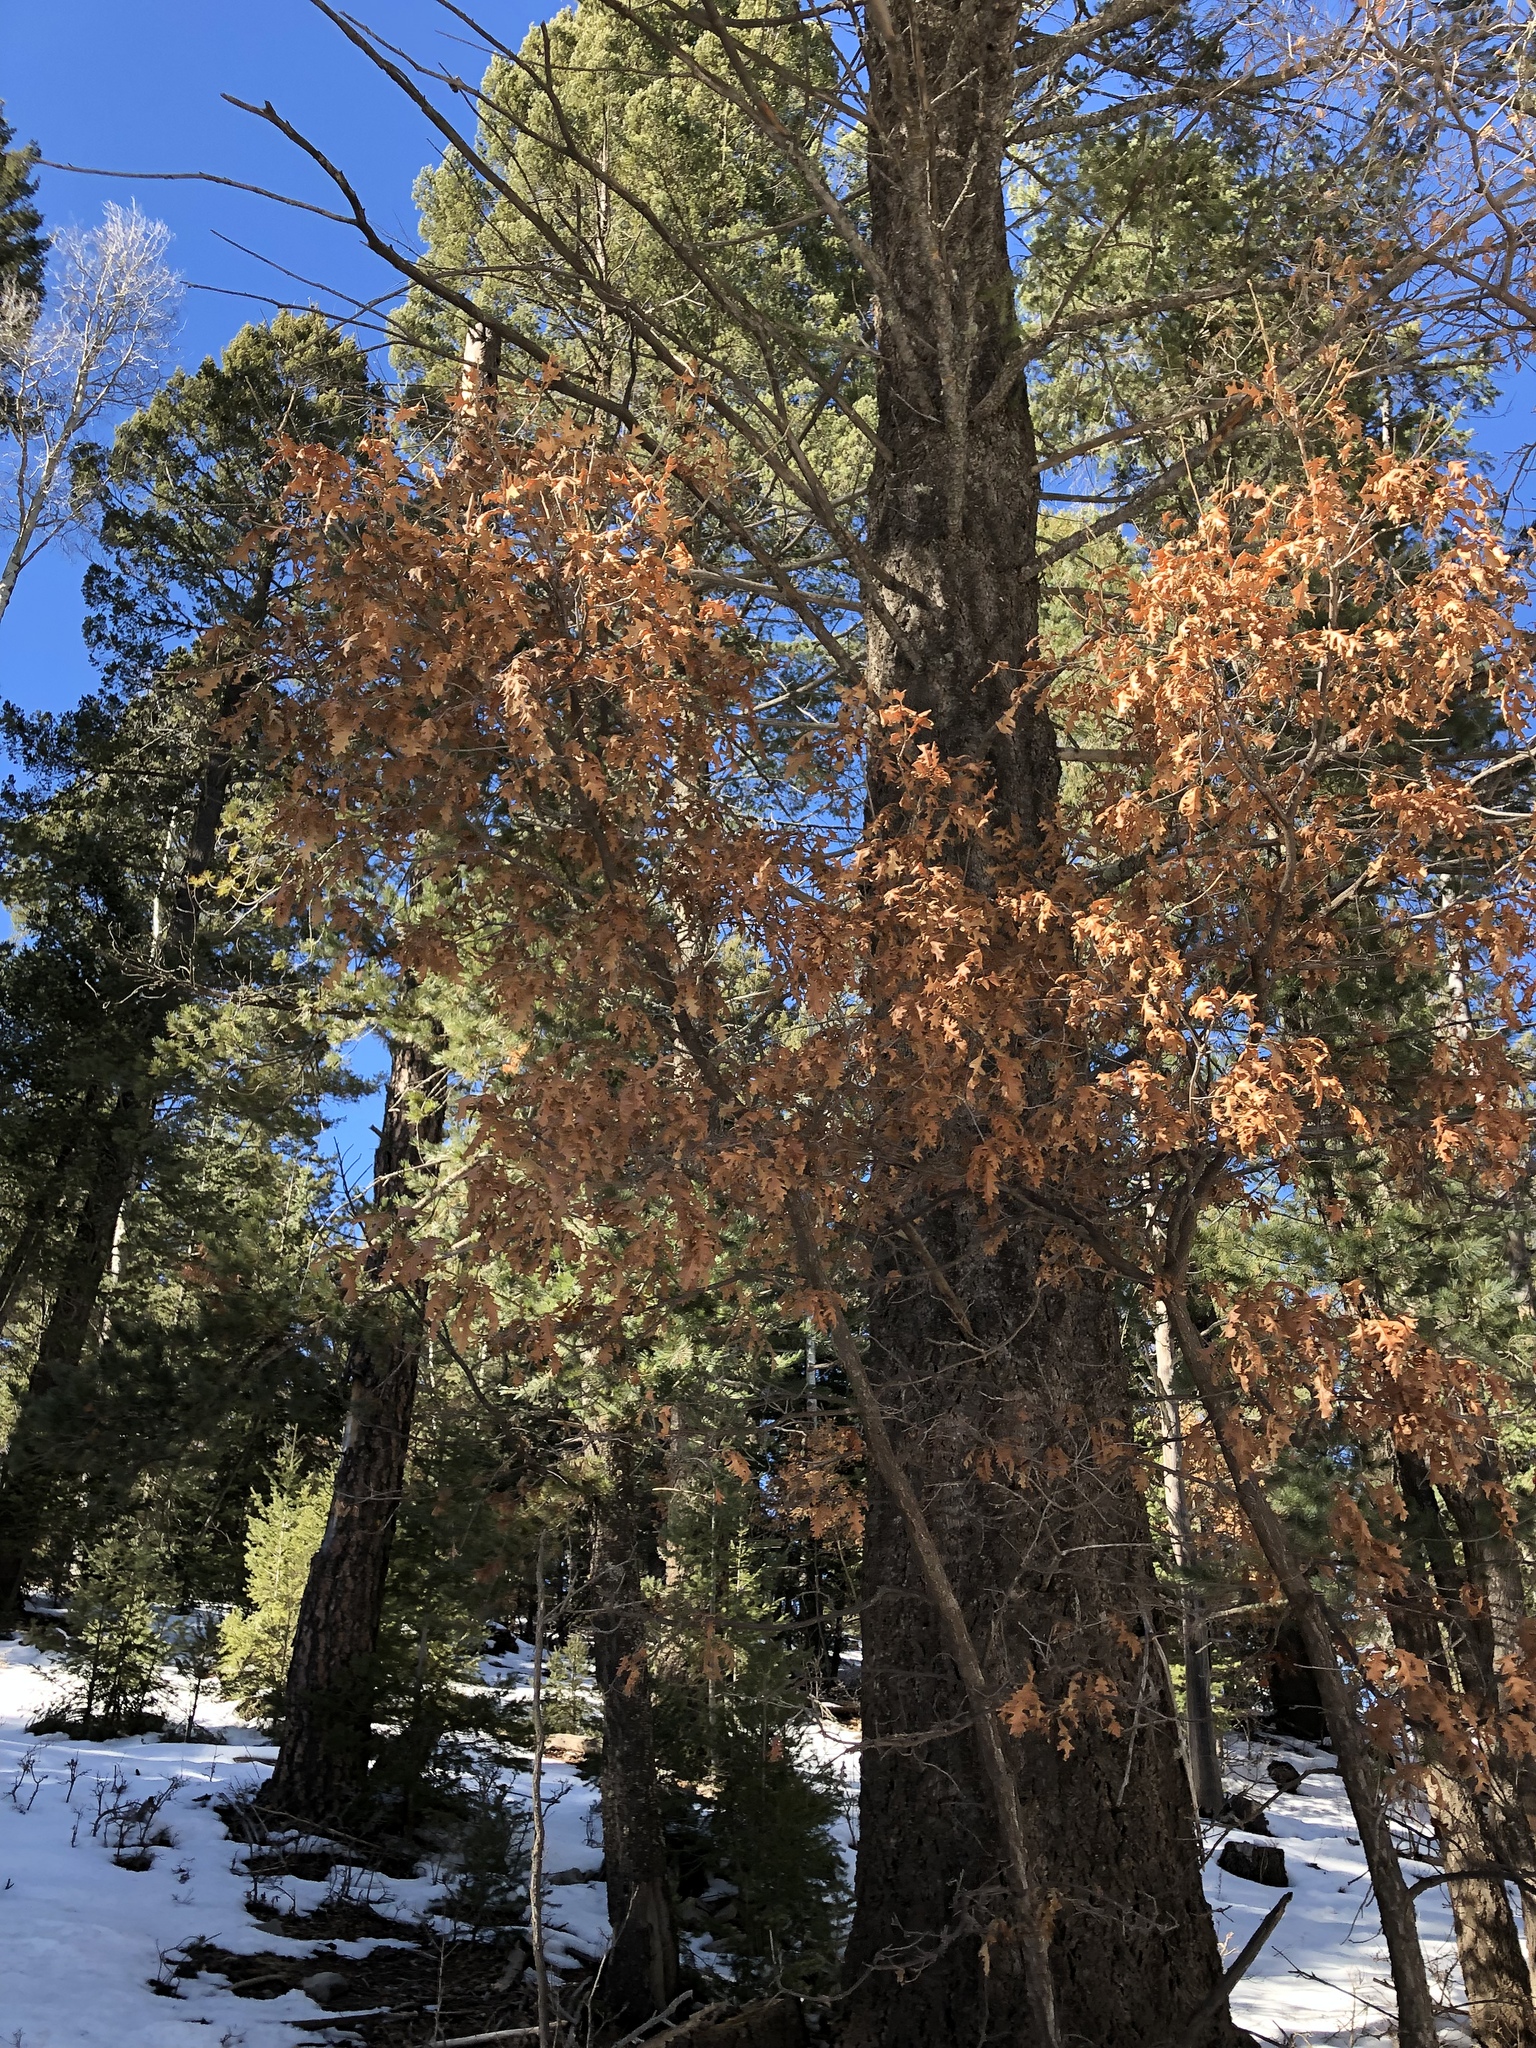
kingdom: Plantae
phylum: Tracheophyta
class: Magnoliopsida
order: Fagales
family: Fagaceae
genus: Quercus
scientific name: Quercus gambelii
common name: Gambel oak
